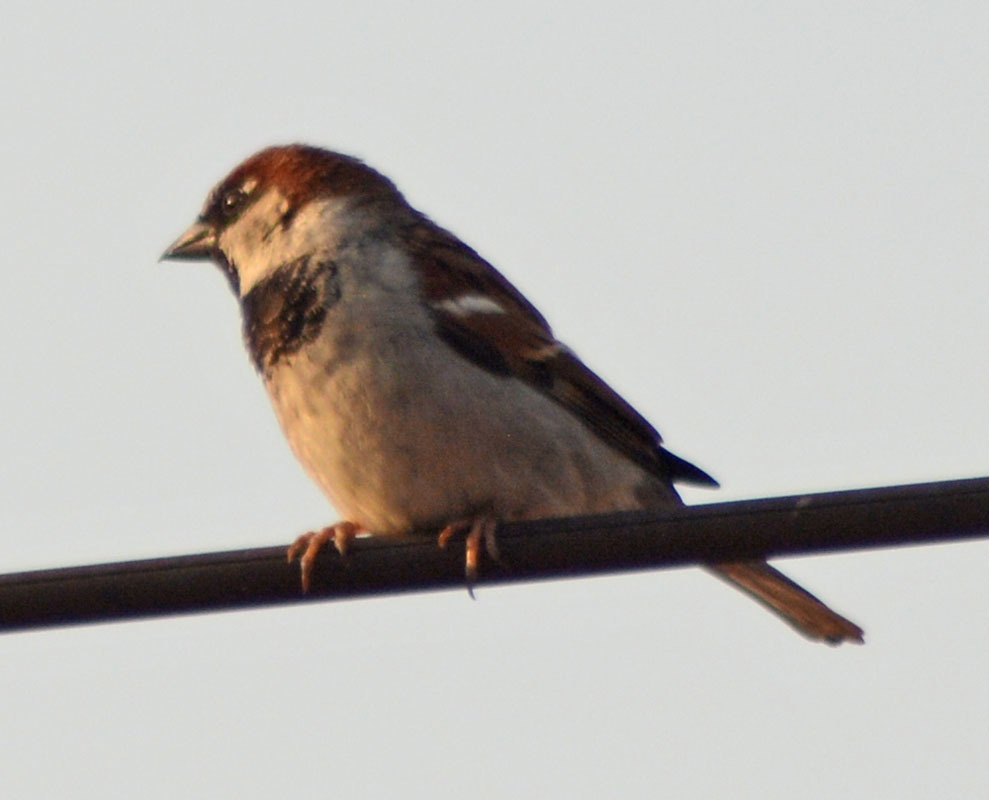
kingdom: Animalia
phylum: Chordata
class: Aves
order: Passeriformes
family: Passeridae
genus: Passer
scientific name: Passer domesticus
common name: House sparrow
